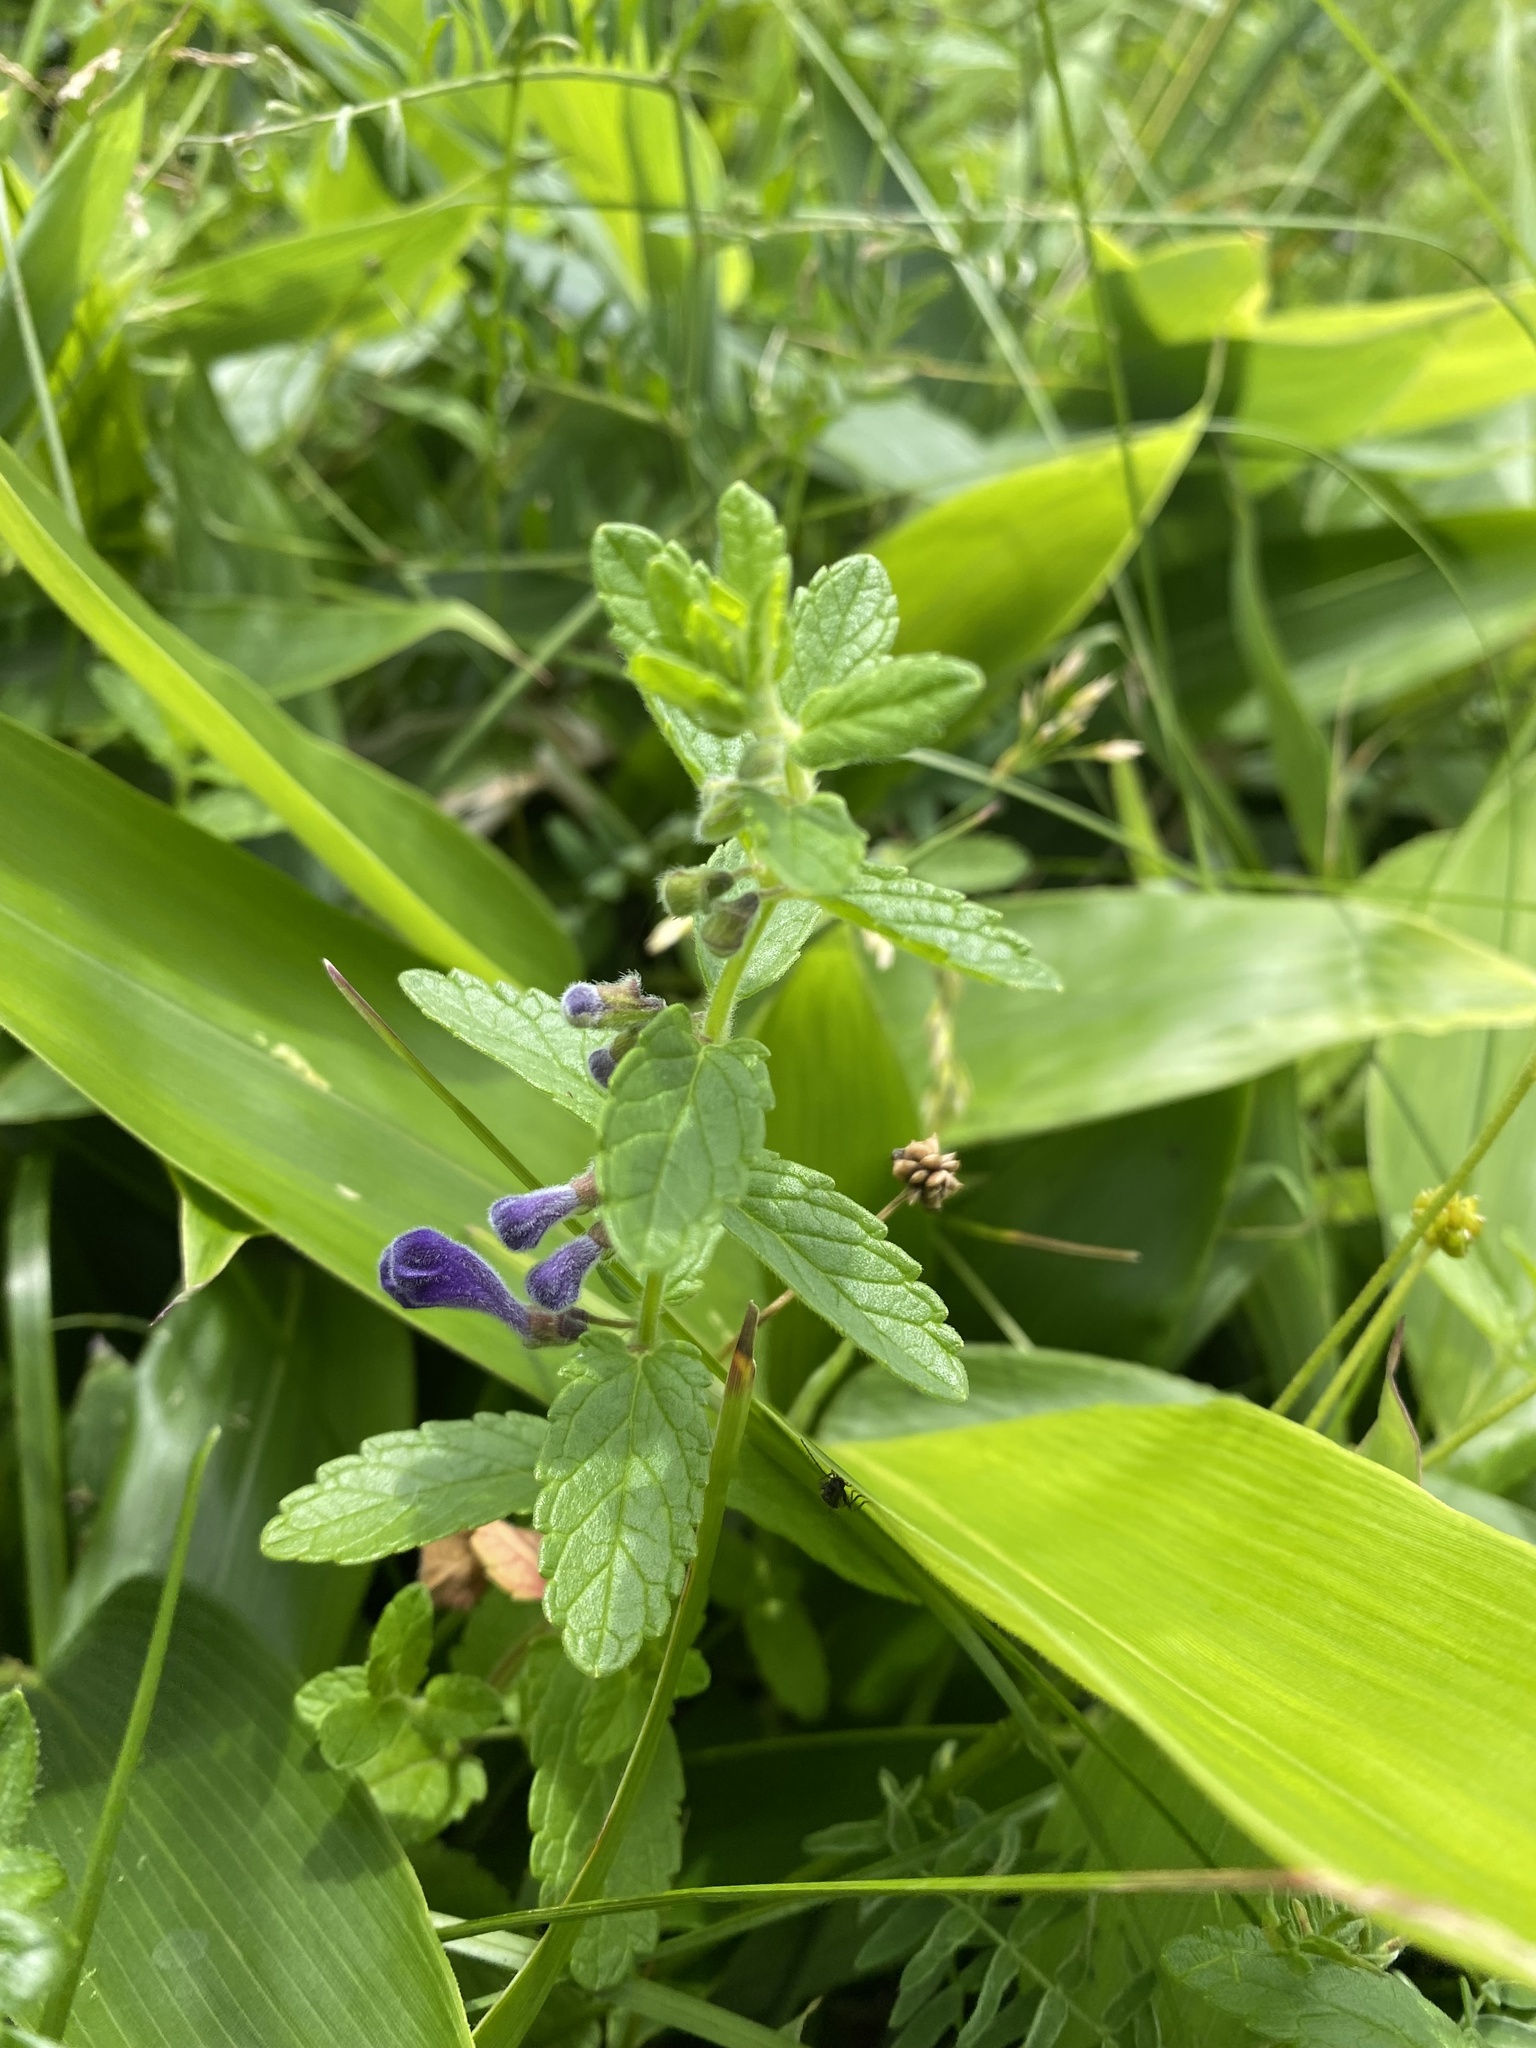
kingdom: Plantae
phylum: Tracheophyta
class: Magnoliopsida
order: Lamiales
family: Lamiaceae
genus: Scutellaria
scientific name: Scutellaria strigillosa
